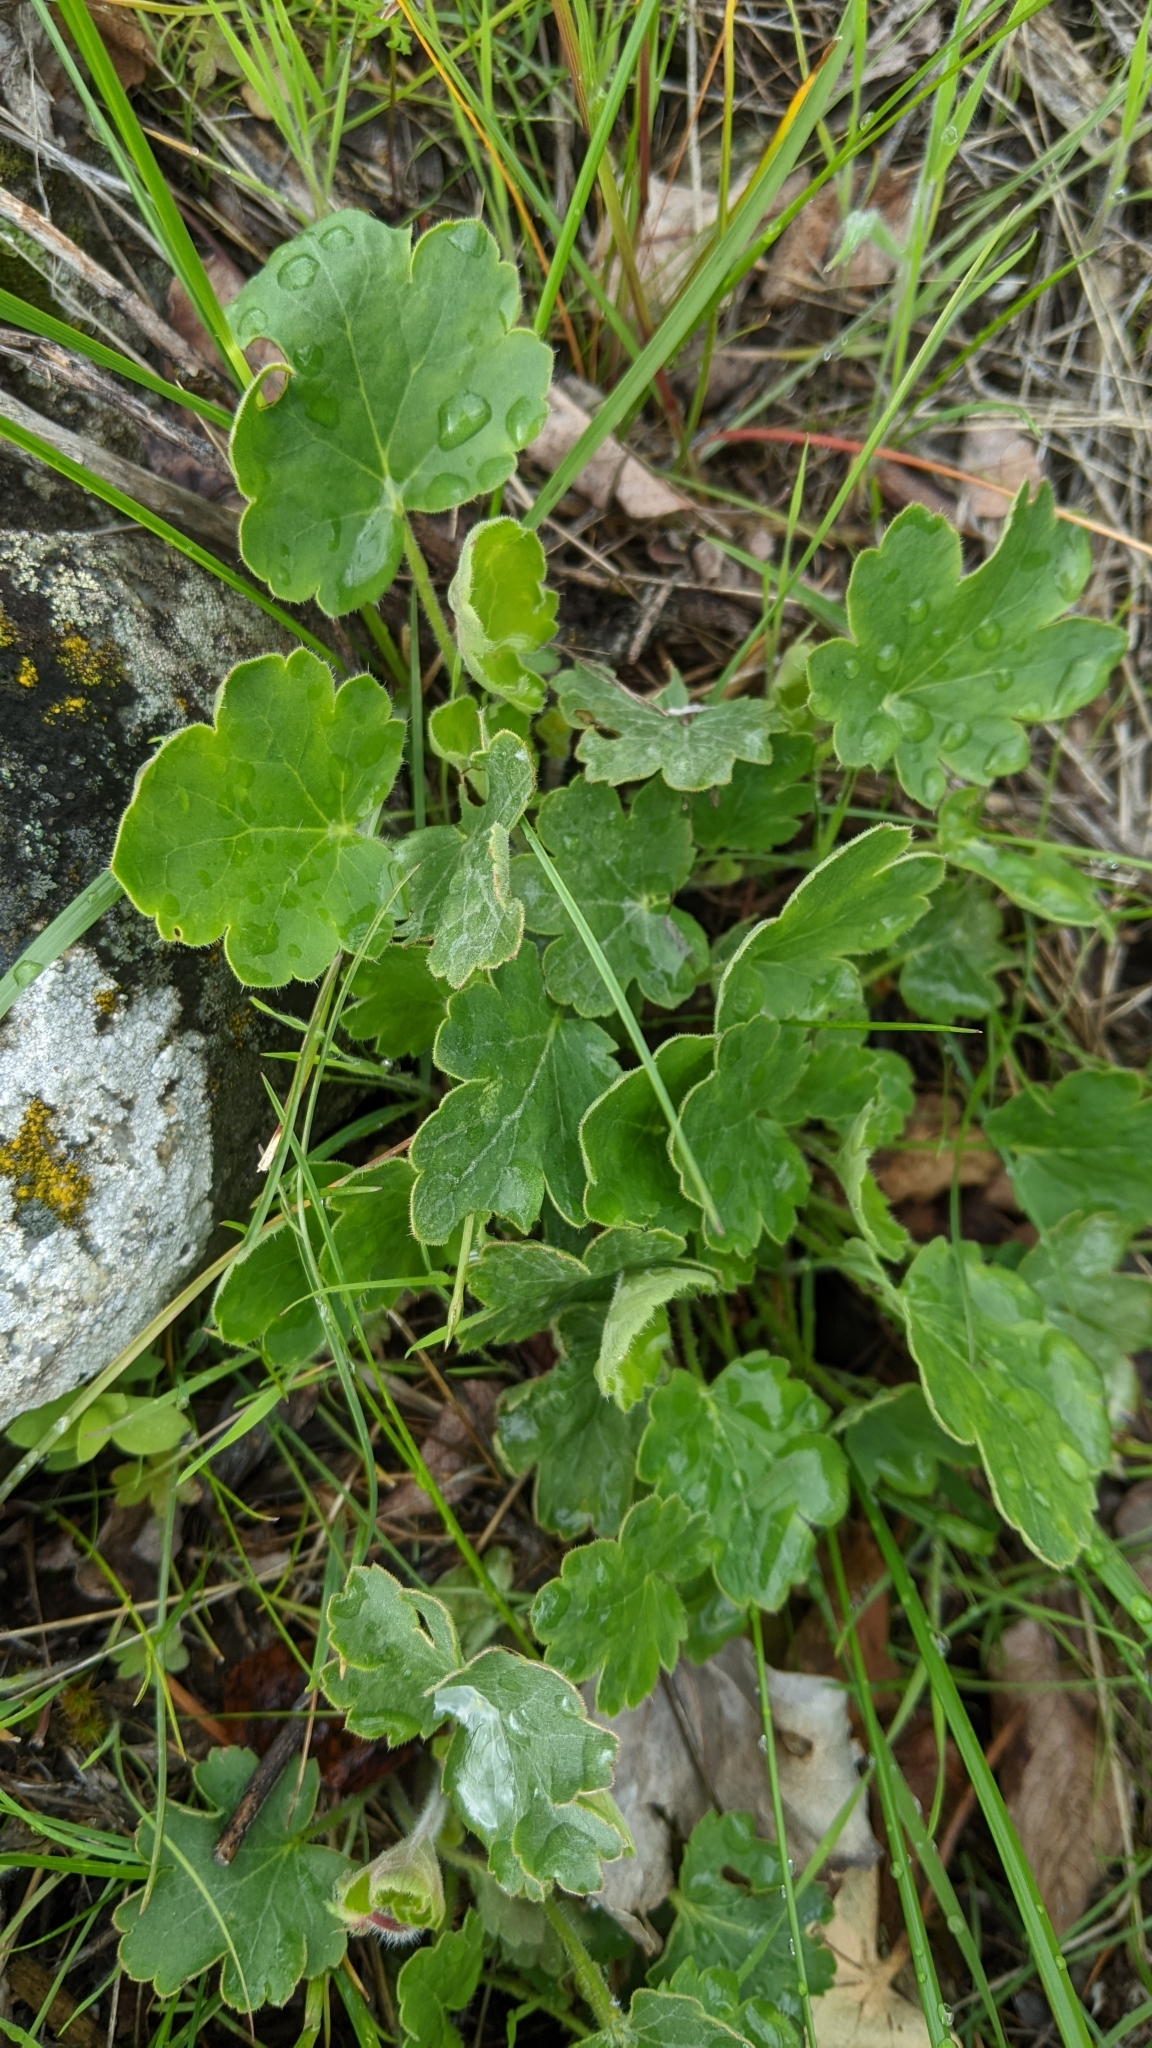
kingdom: Plantae
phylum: Tracheophyta
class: Magnoliopsida
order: Saxifragales
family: Saxifragaceae
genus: Heuchera
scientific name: Heuchera cylindrica
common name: Mat alumroot
